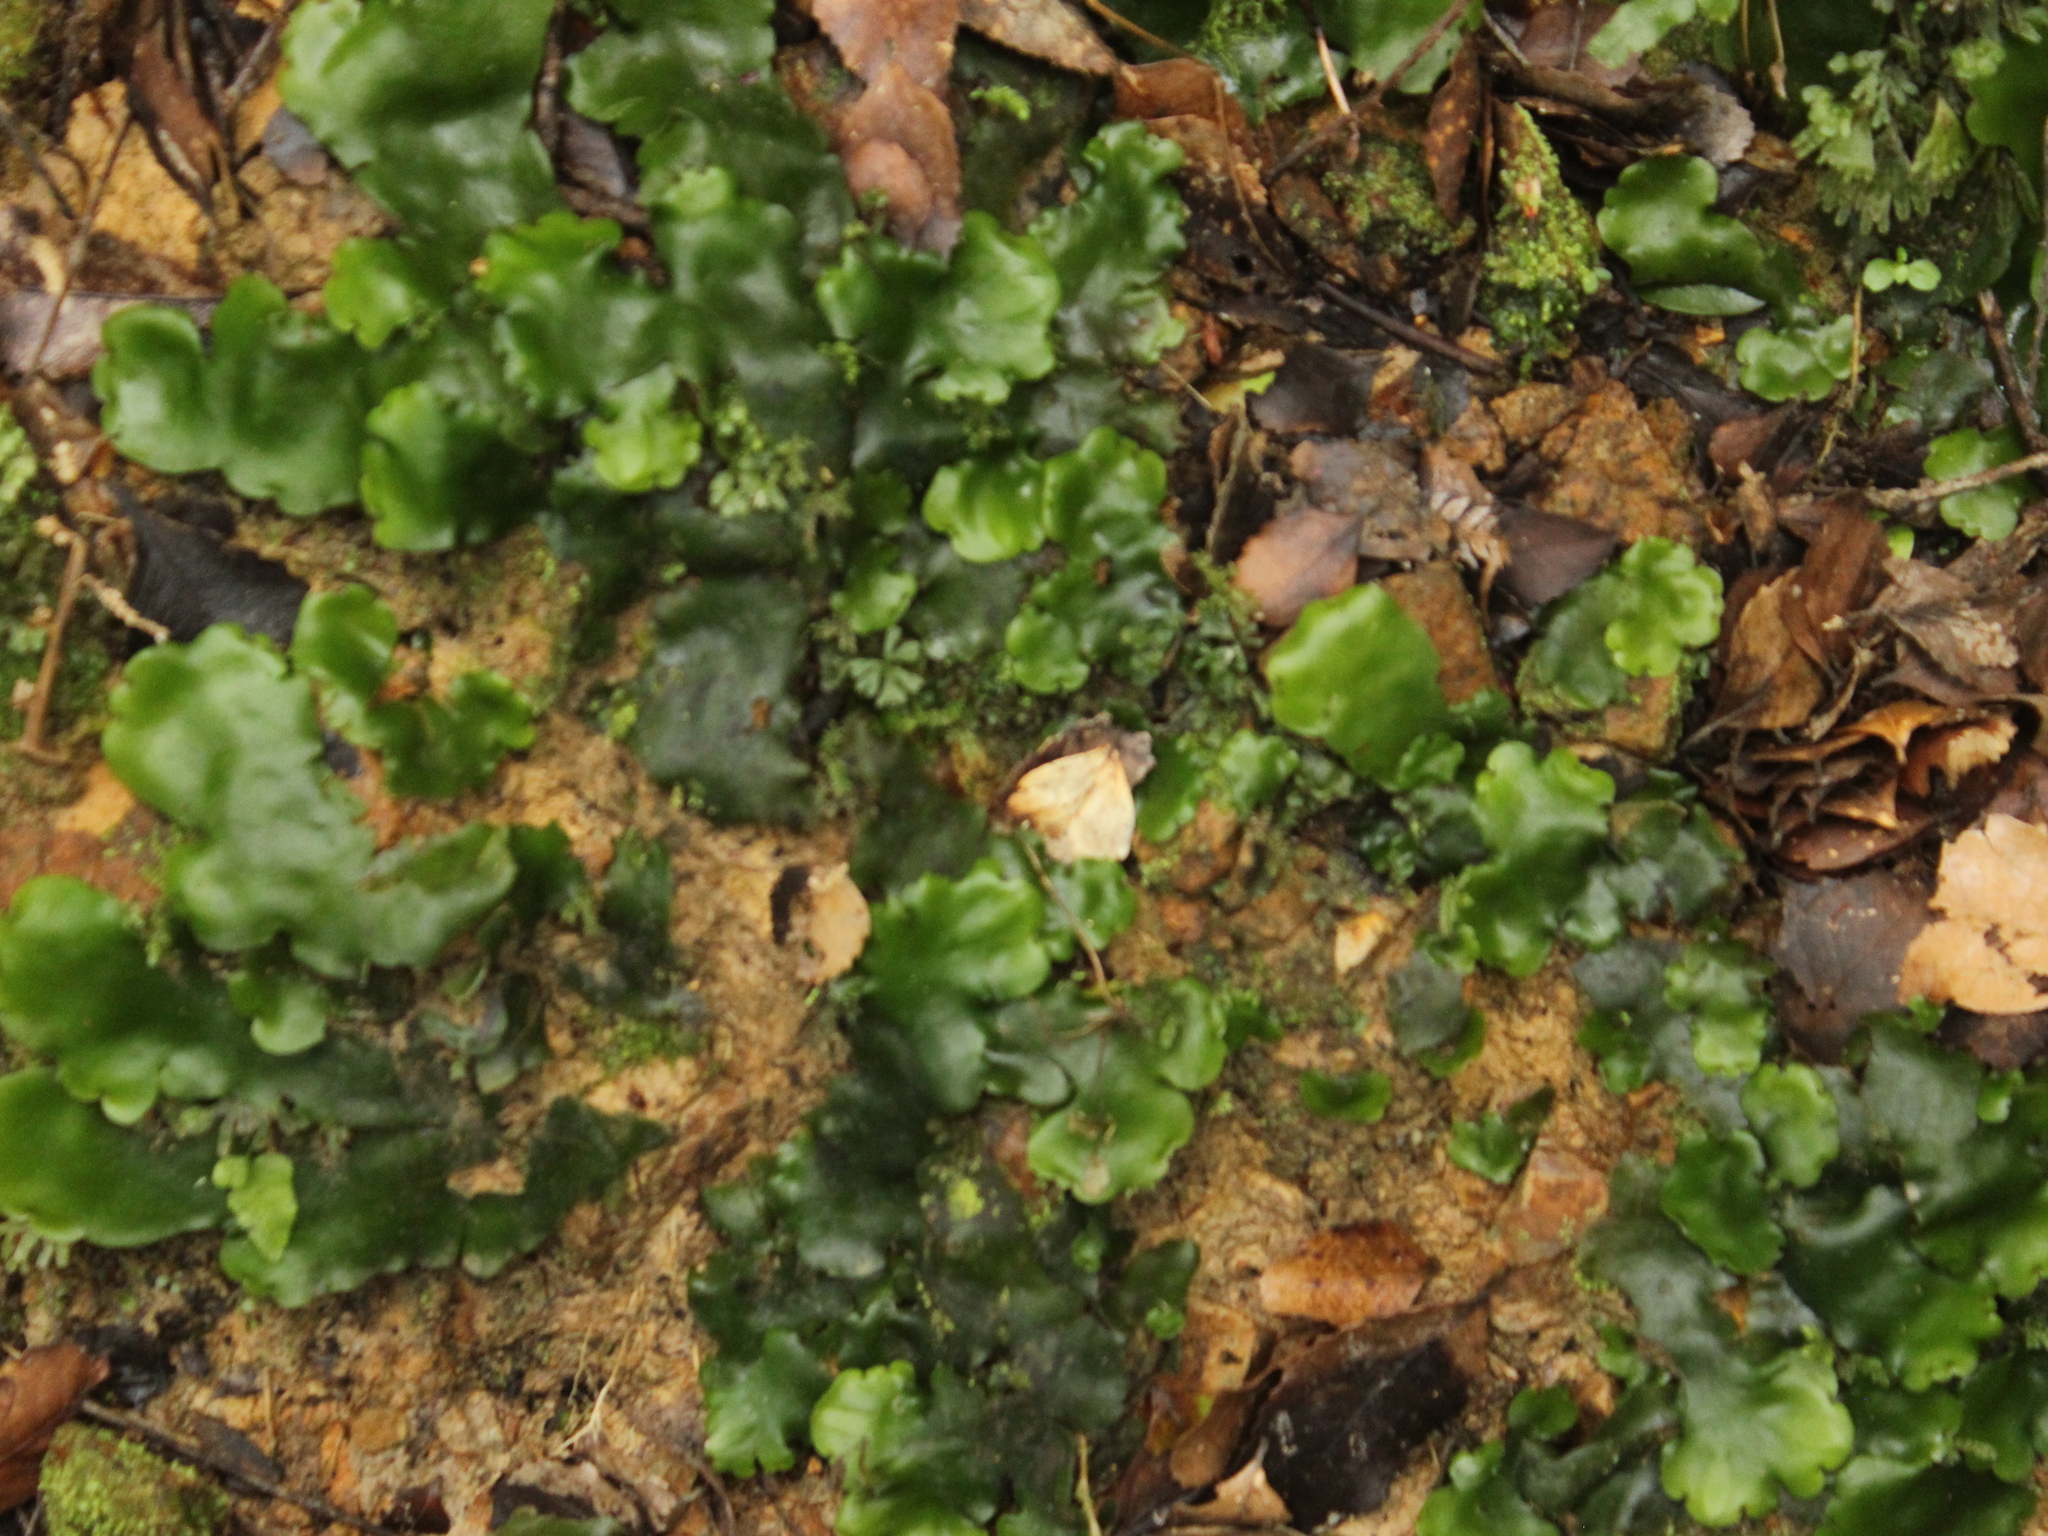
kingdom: Plantae
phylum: Marchantiophyta
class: Marchantiopsida
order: Marchantiales
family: Monocleaceae
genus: Monoclea
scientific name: Monoclea forsteri
